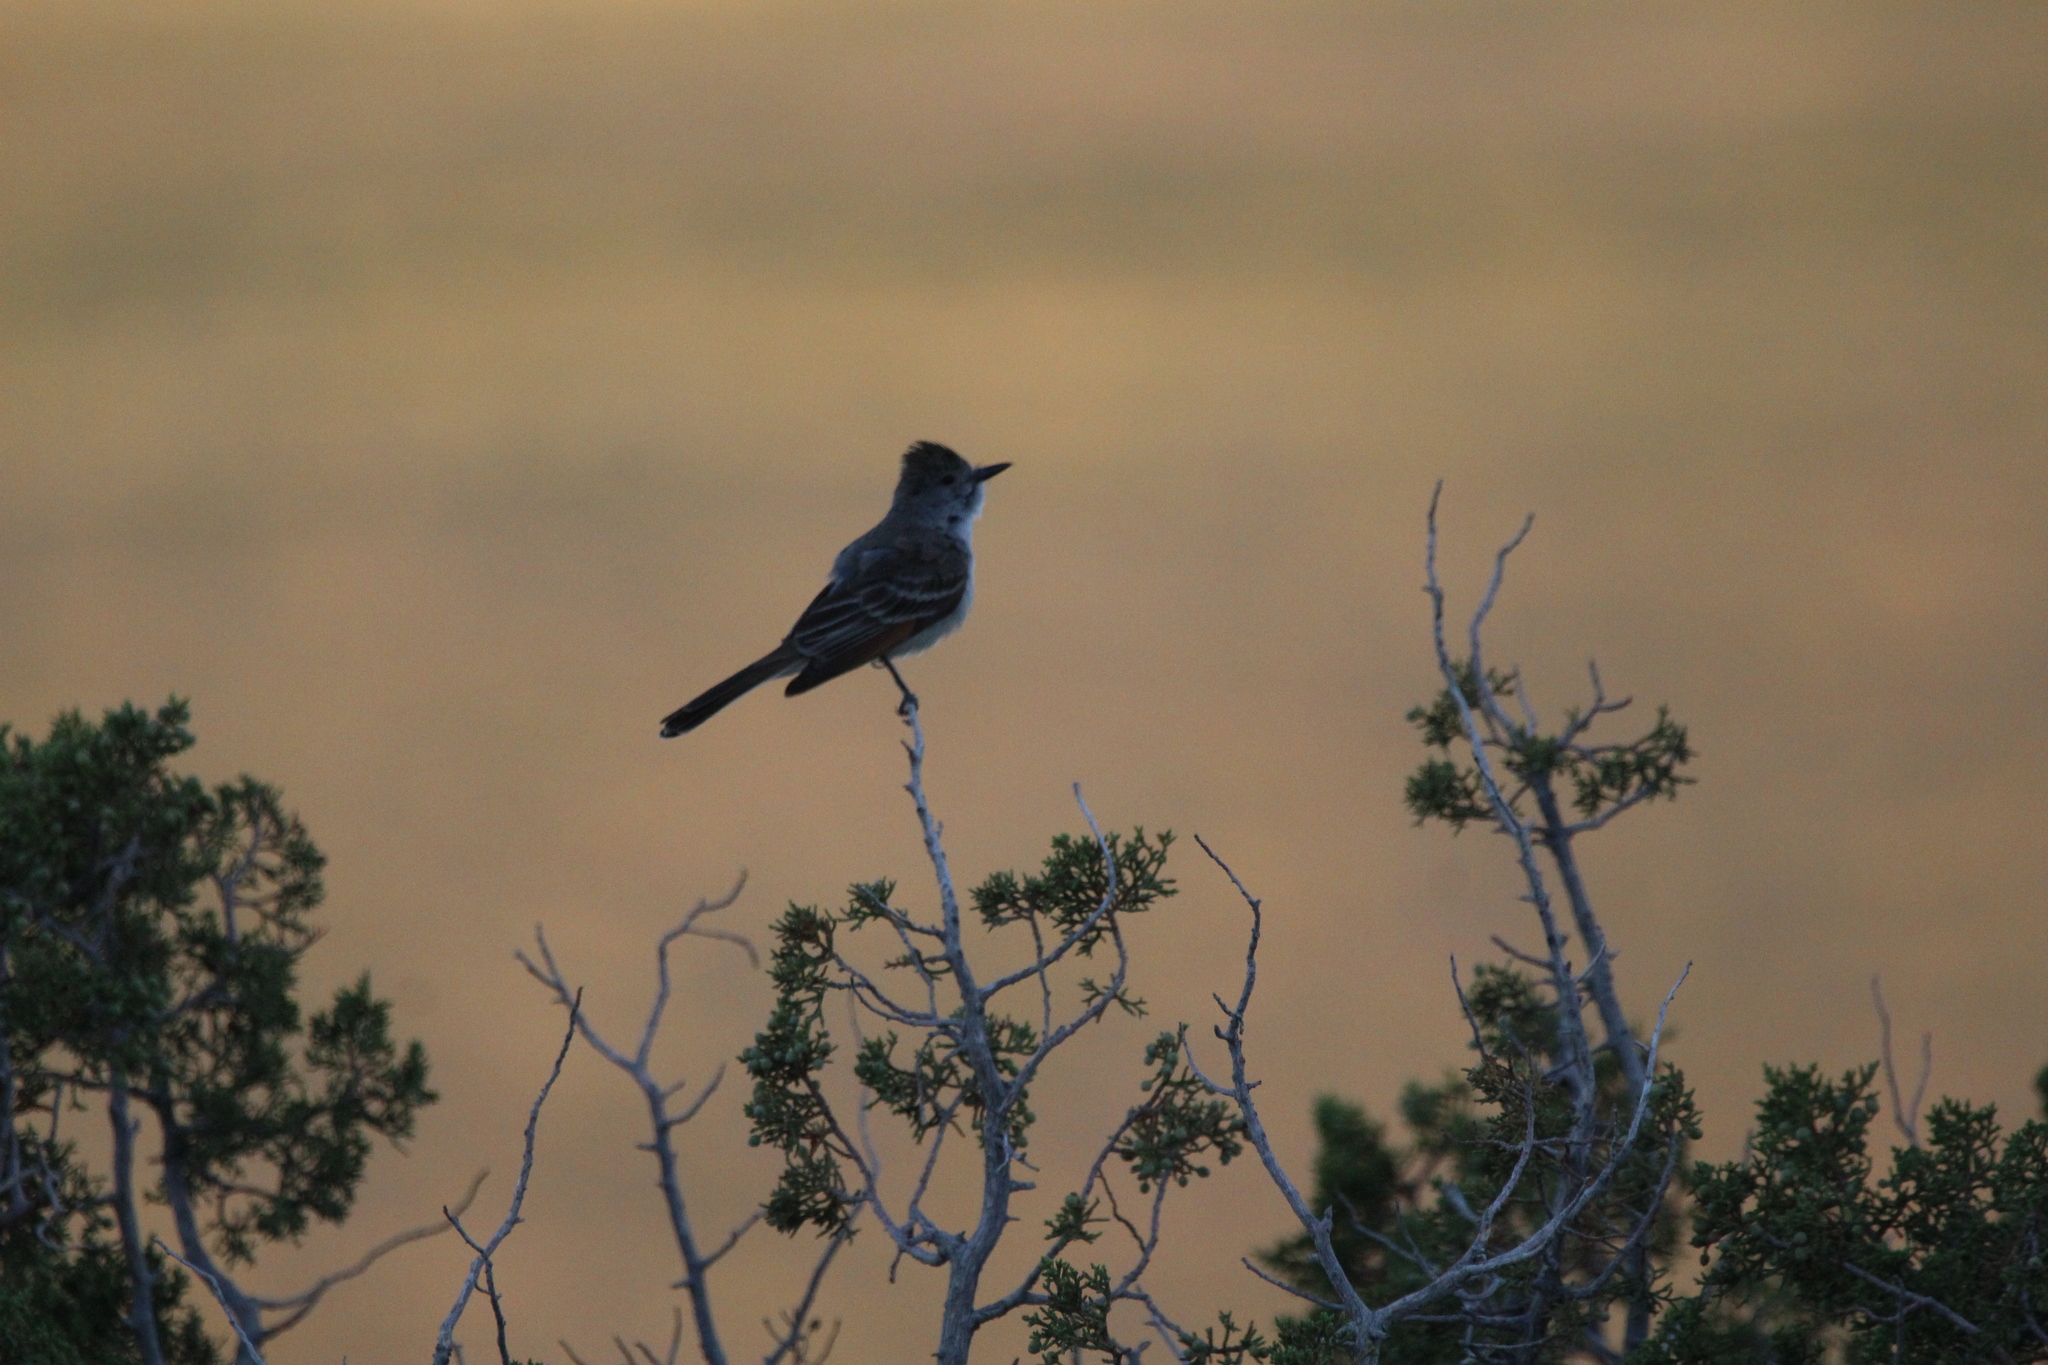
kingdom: Animalia
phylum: Chordata
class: Aves
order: Passeriformes
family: Tyrannidae
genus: Myiarchus
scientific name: Myiarchus cinerascens
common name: Ash-throated flycatcher
